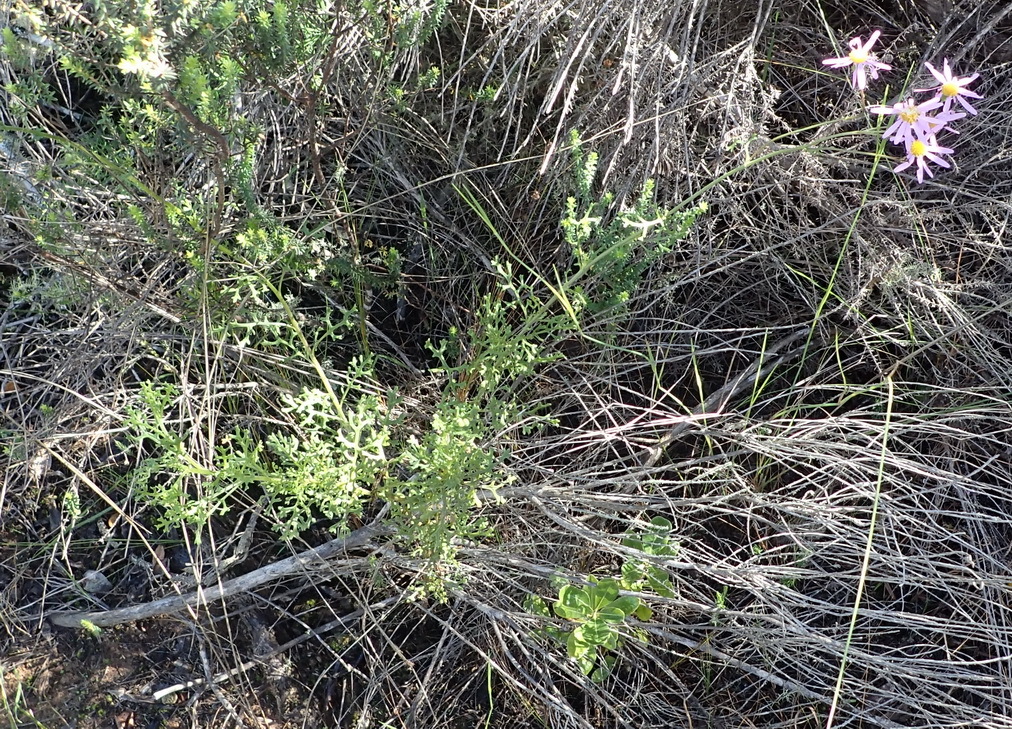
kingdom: Plantae
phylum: Tracheophyta
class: Magnoliopsida
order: Asterales
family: Asteraceae
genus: Senecio
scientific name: Senecio elegans
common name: Purple groundsel
